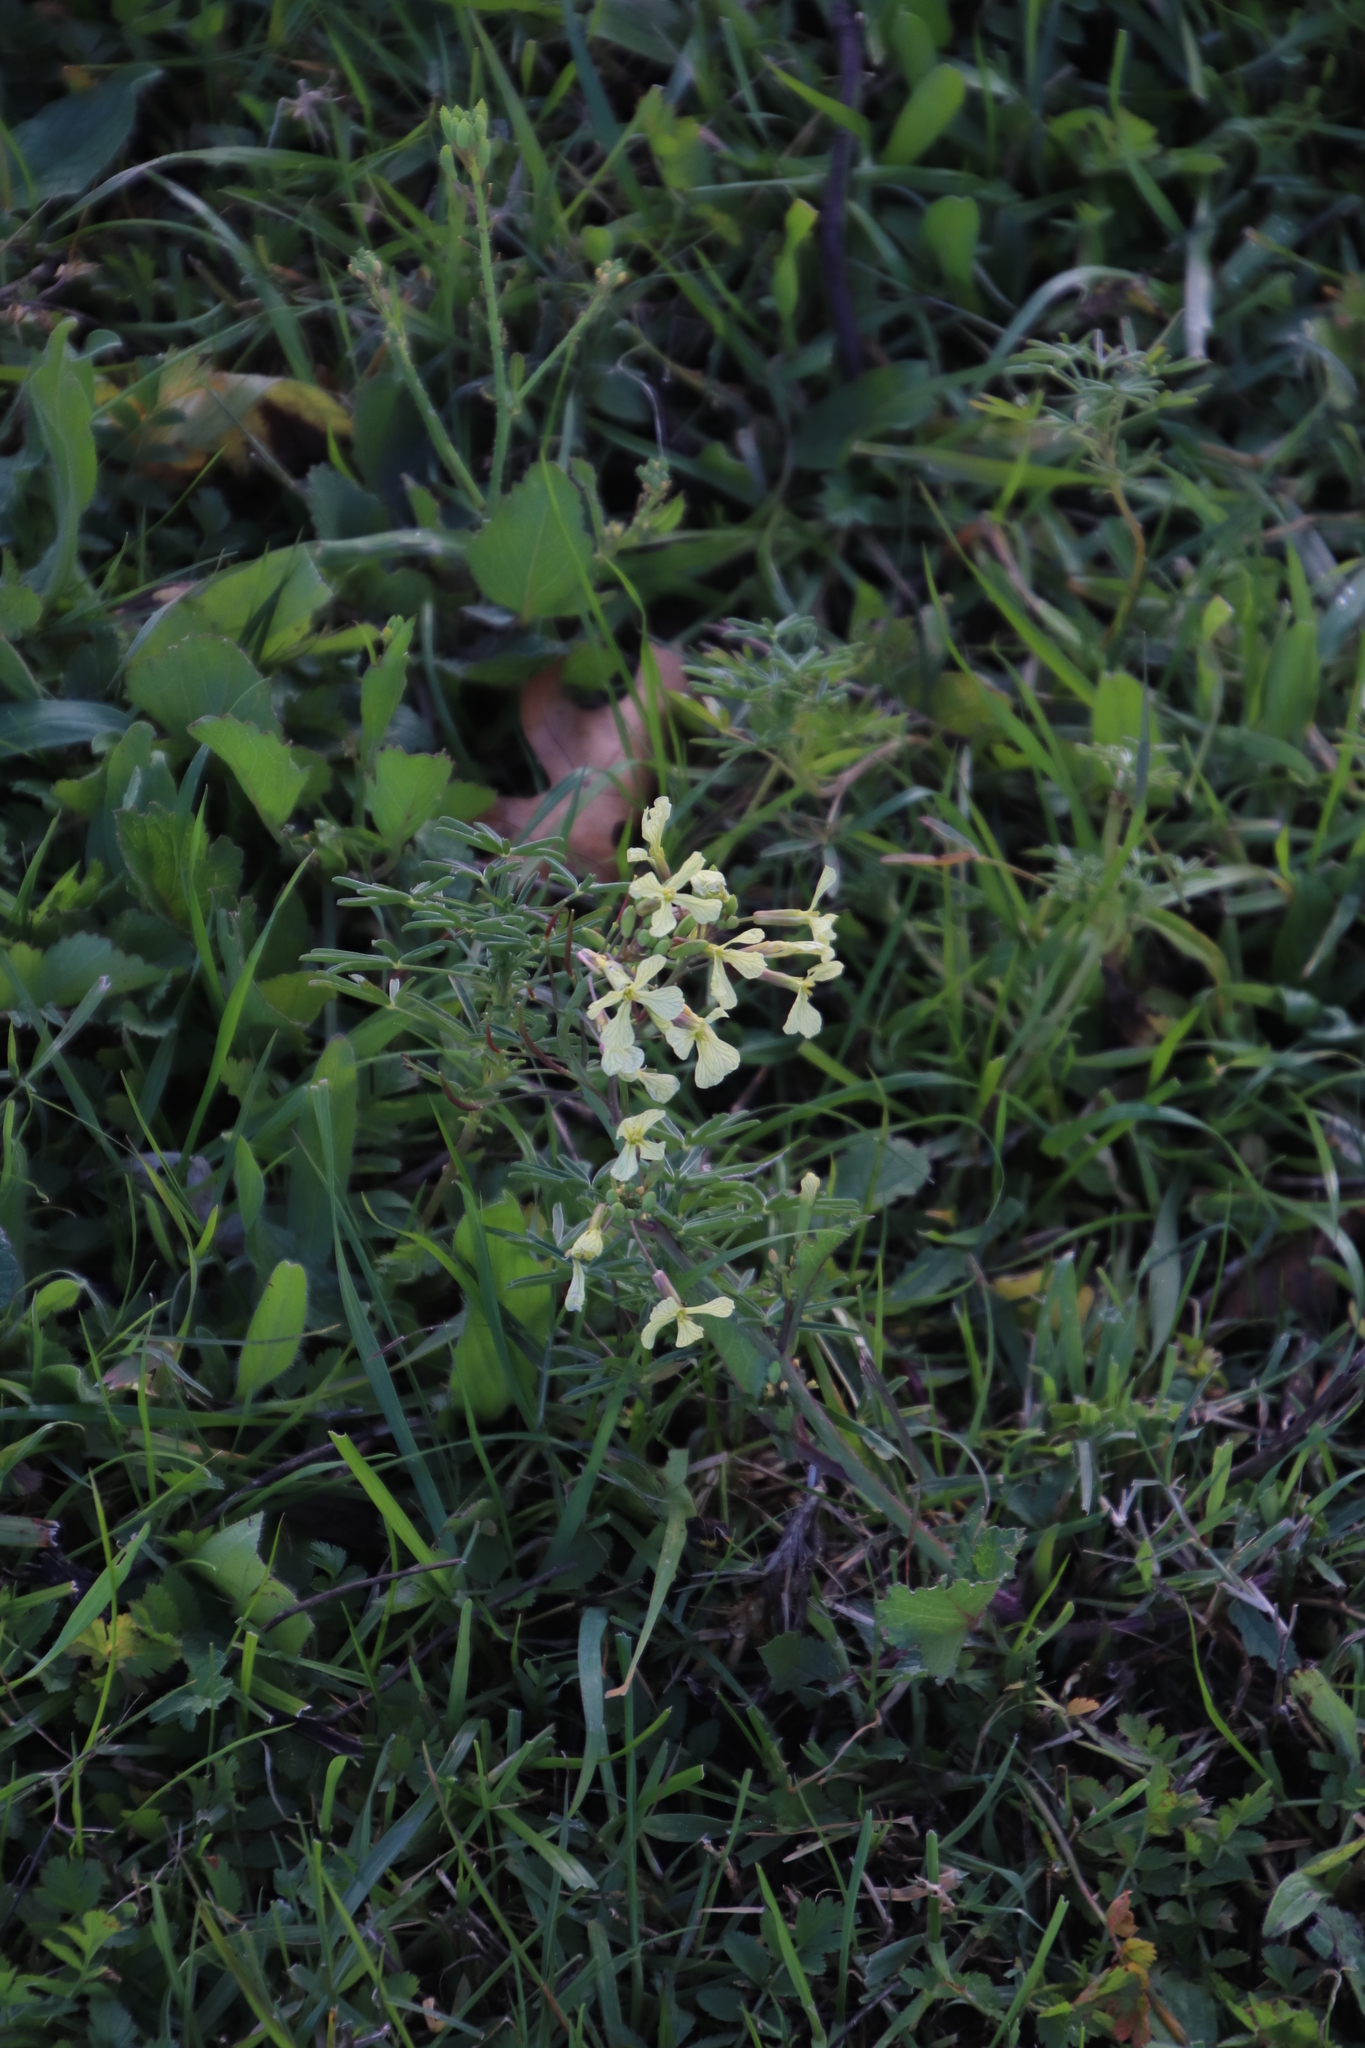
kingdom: Plantae
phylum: Tracheophyta
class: Magnoliopsida
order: Brassicales
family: Brassicaceae
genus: Raphanus
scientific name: Raphanus raphanistrum
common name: Wild radish
